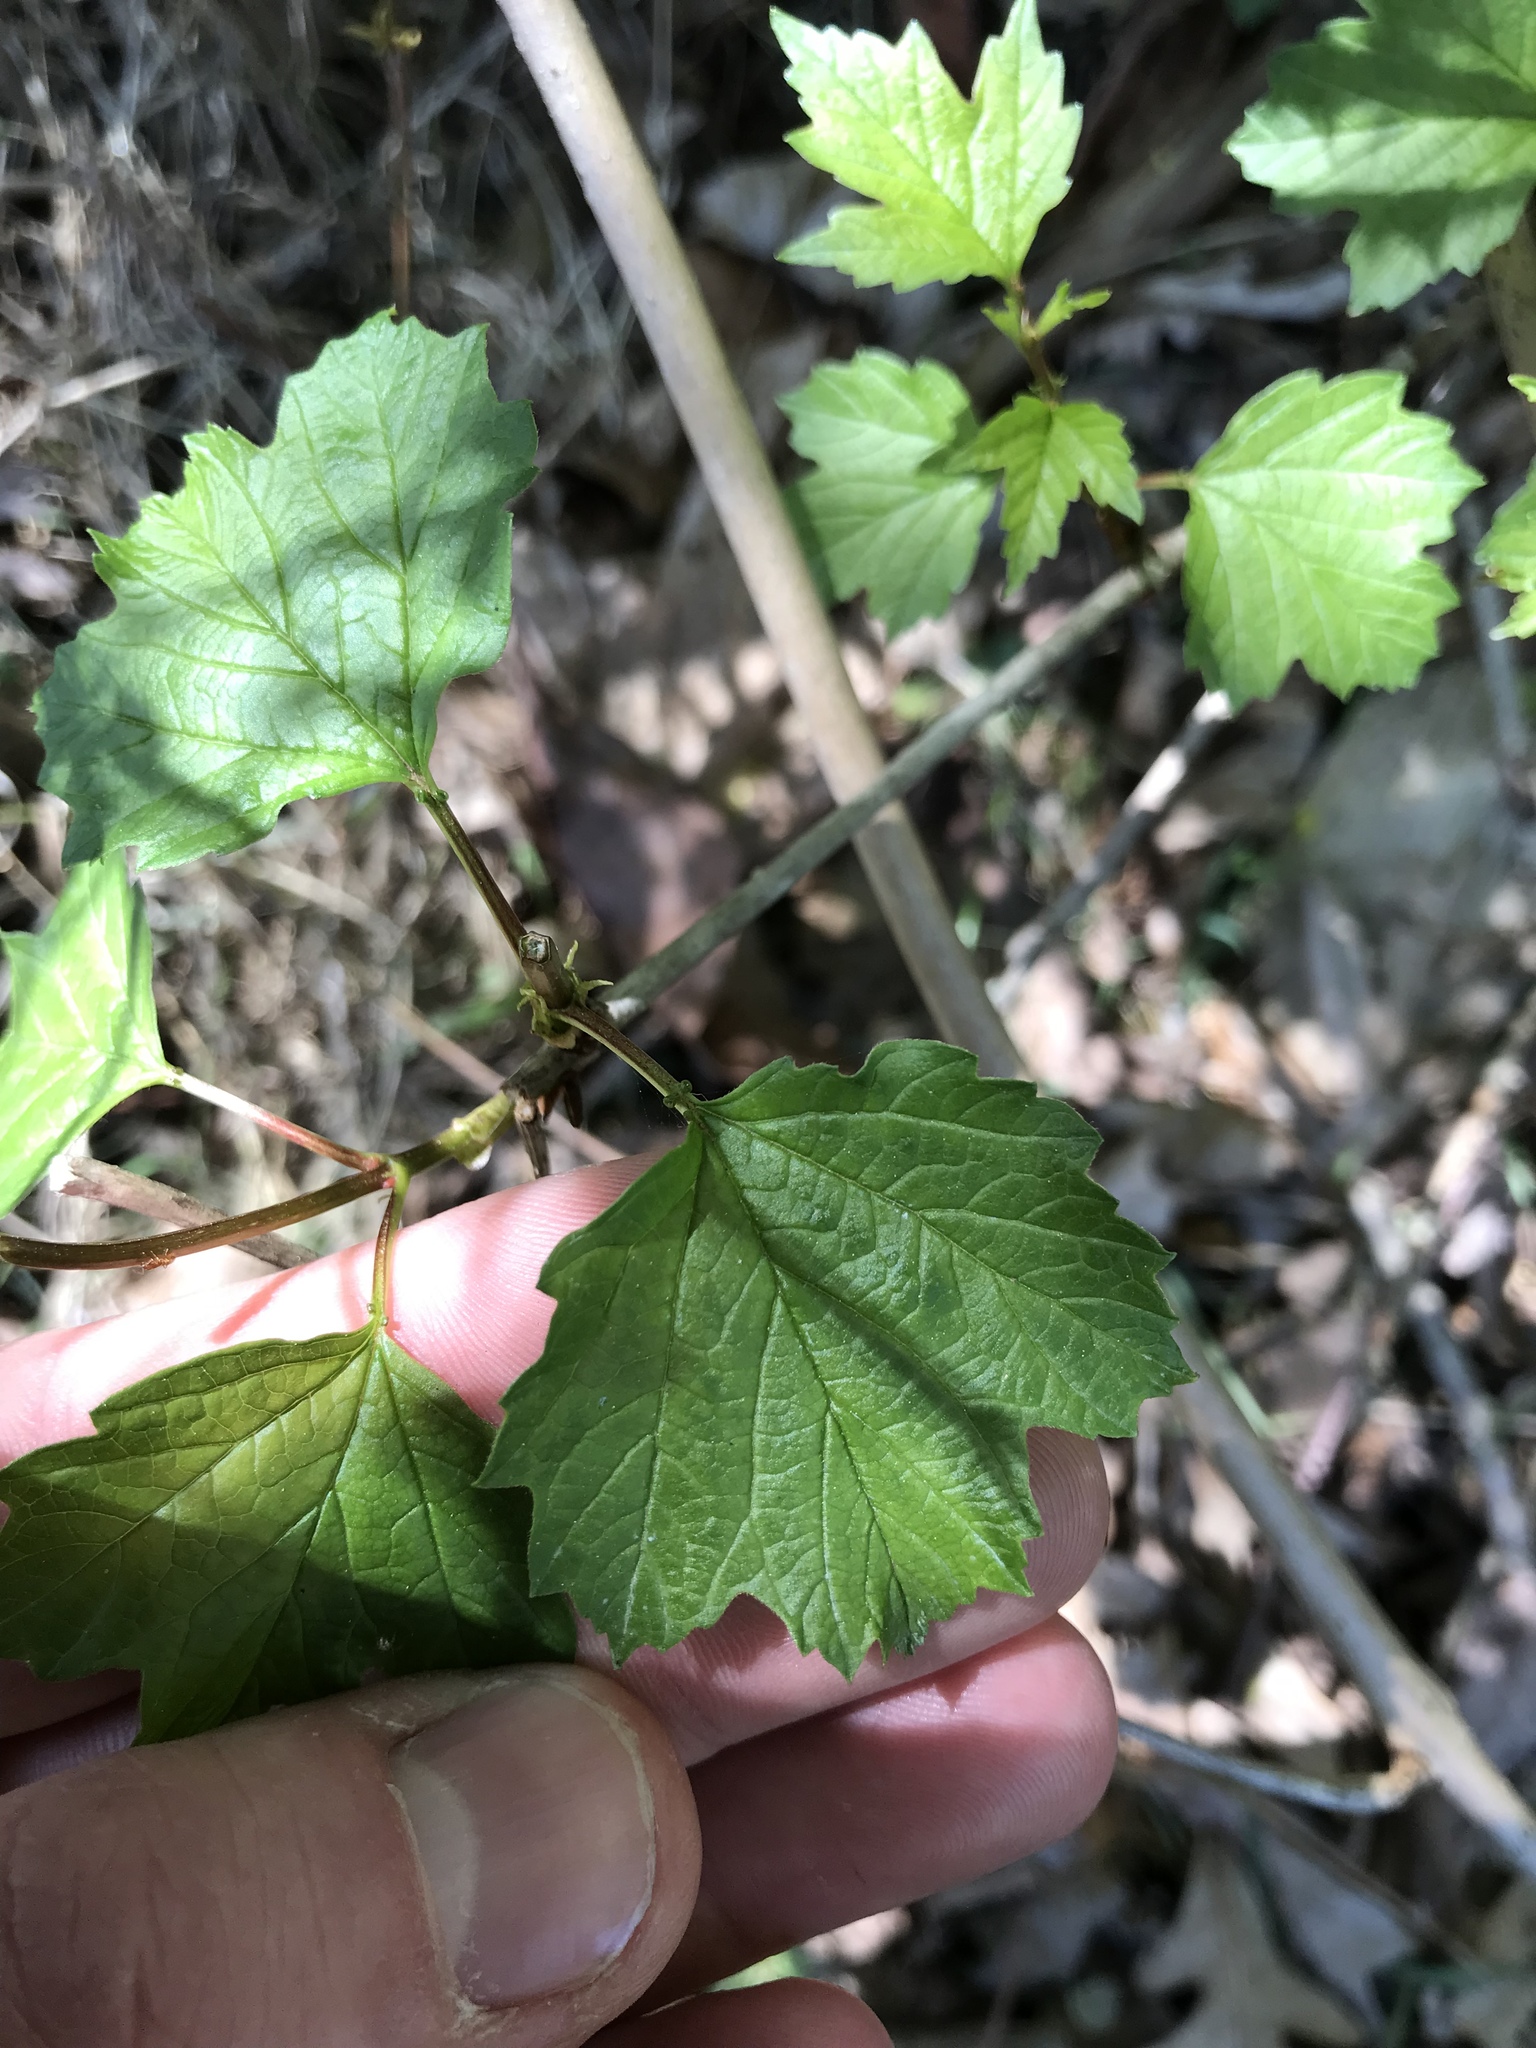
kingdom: Plantae
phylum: Tracheophyta
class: Magnoliopsida
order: Dipsacales
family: Viburnaceae
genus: Viburnum
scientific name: Viburnum opulus
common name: Guelder-rose
